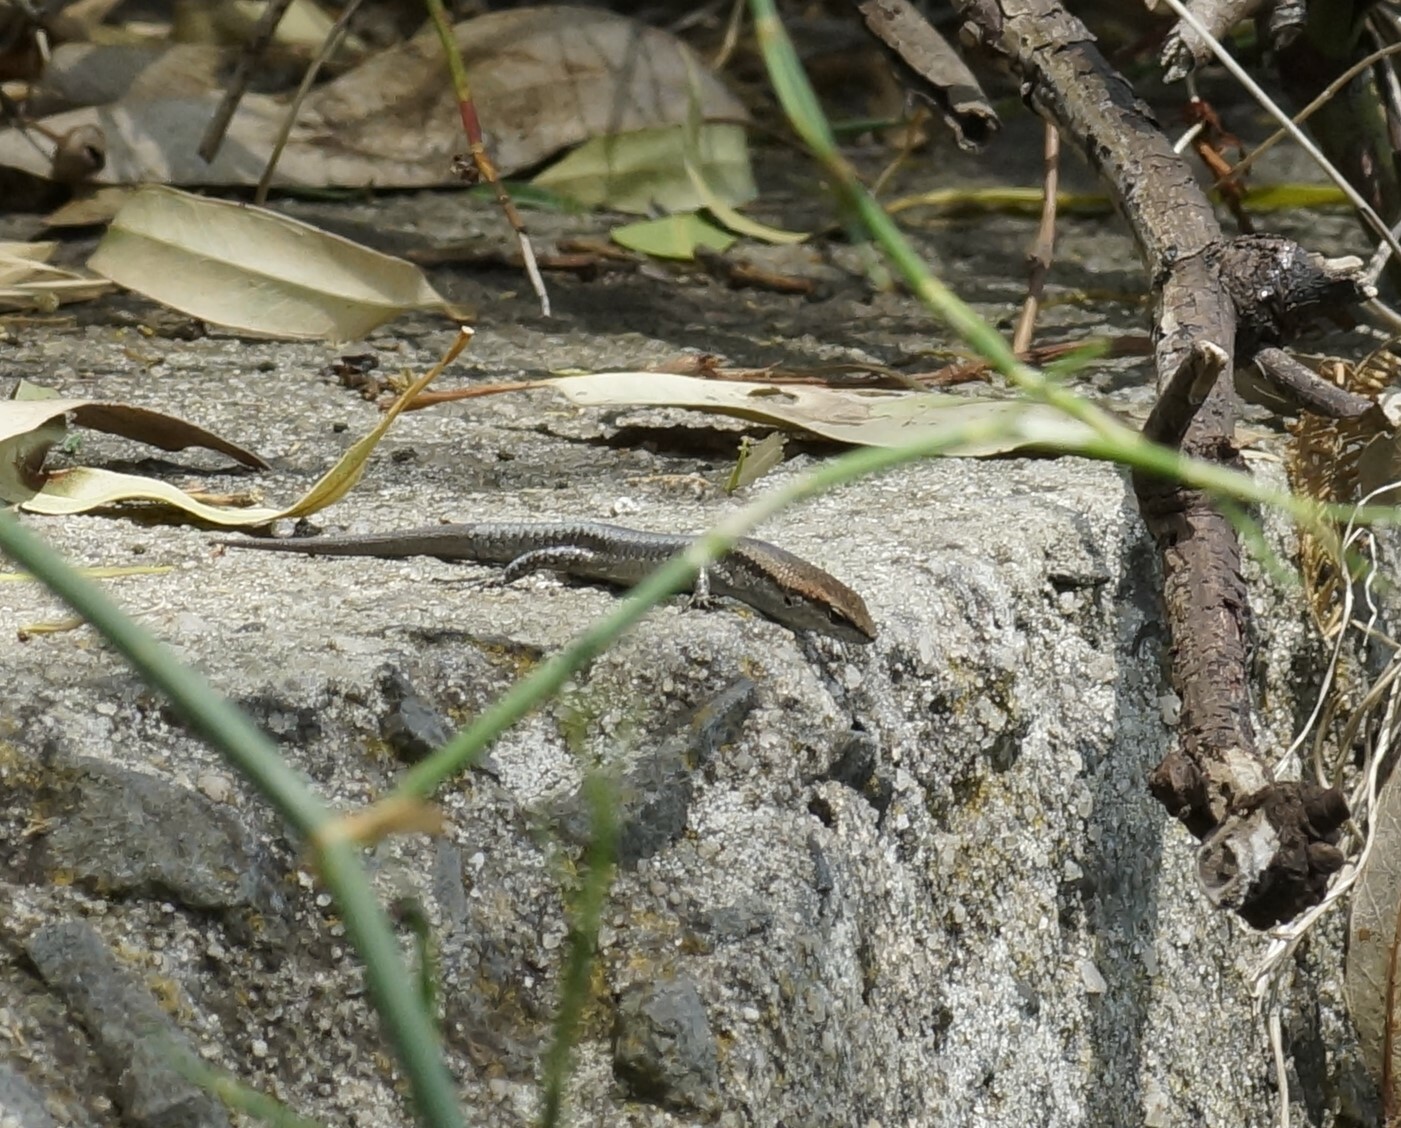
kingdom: Animalia
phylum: Chordata
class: Squamata
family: Scincidae
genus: Lampropholis
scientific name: Lampropholis guichenoti
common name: Garden skink
